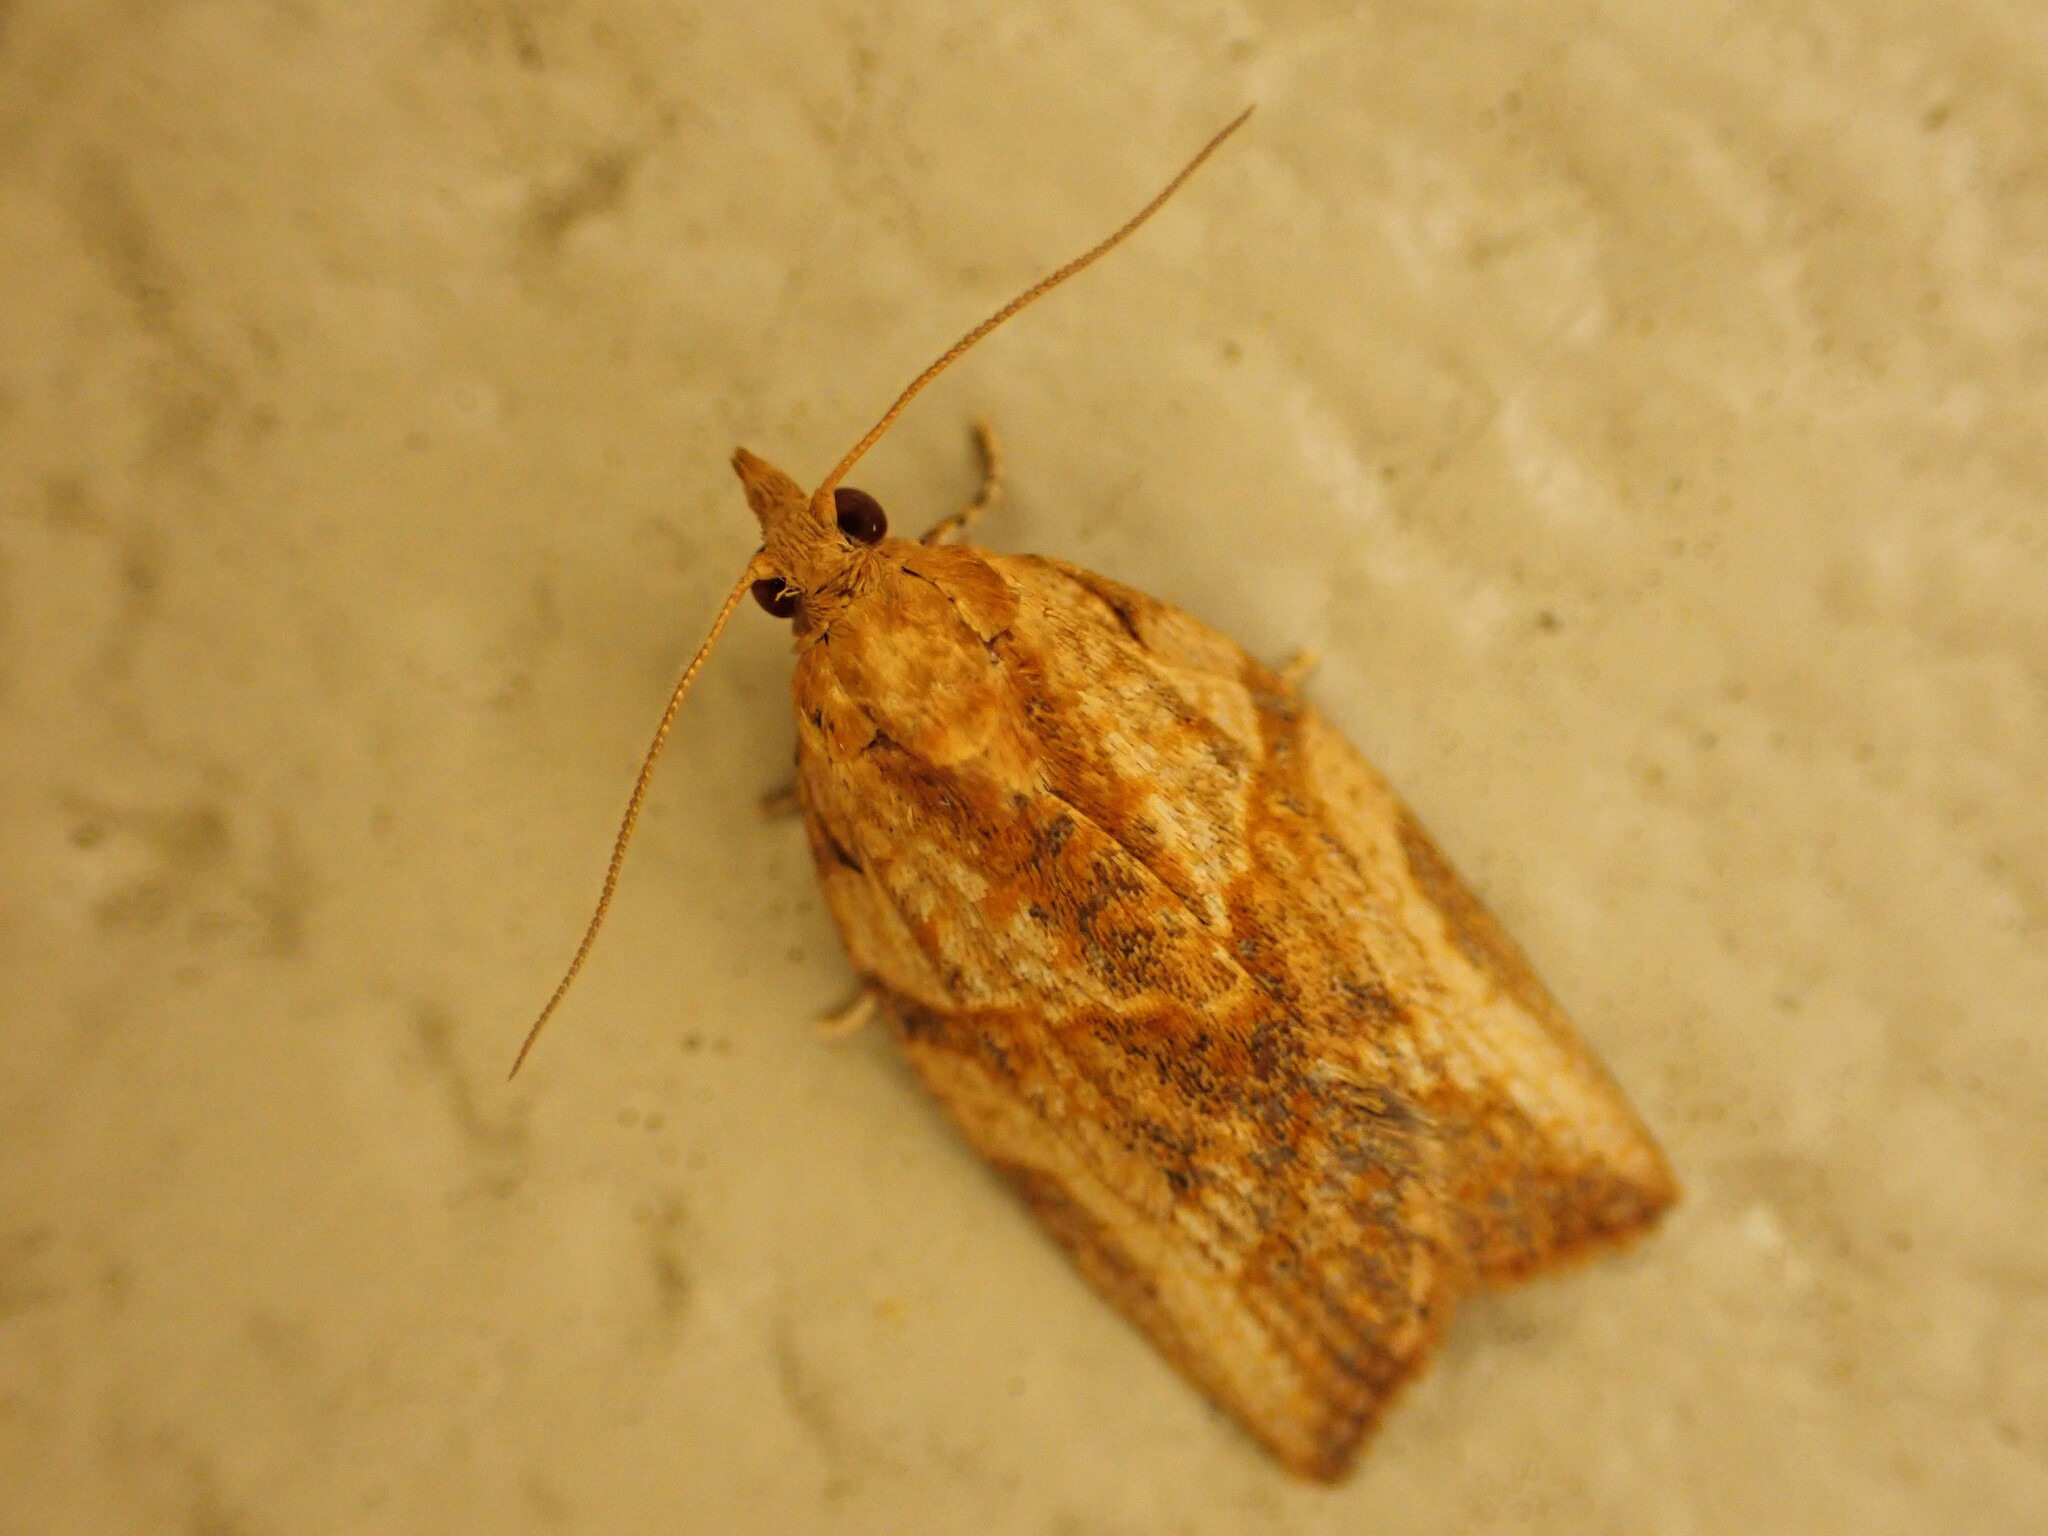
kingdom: Animalia
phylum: Arthropoda
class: Insecta
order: Lepidoptera
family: Tortricidae
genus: Epiphyas
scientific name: Epiphyas postvittana
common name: Light brown apple moth
